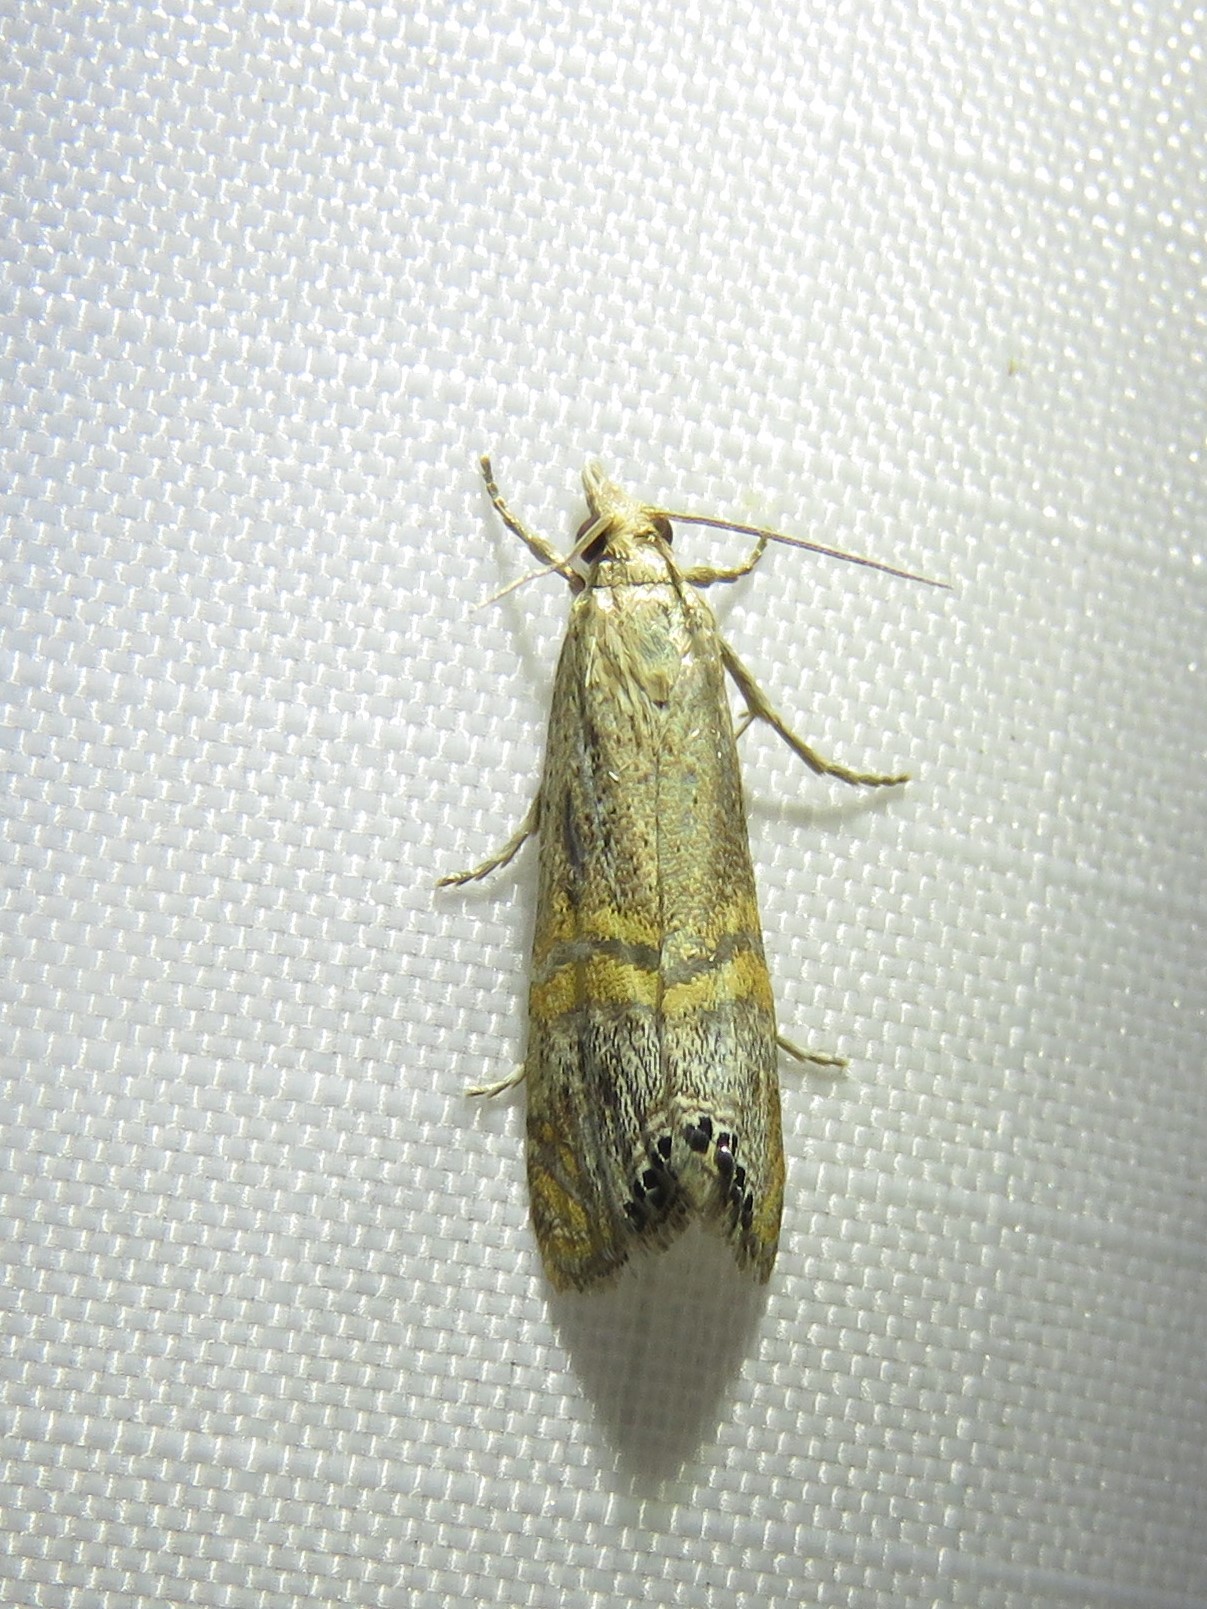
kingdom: Animalia
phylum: Arthropoda
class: Insecta
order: Lepidoptera
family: Crambidae
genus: Euchromius
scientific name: Euchromius ocellea
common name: Necklace veneer moth
